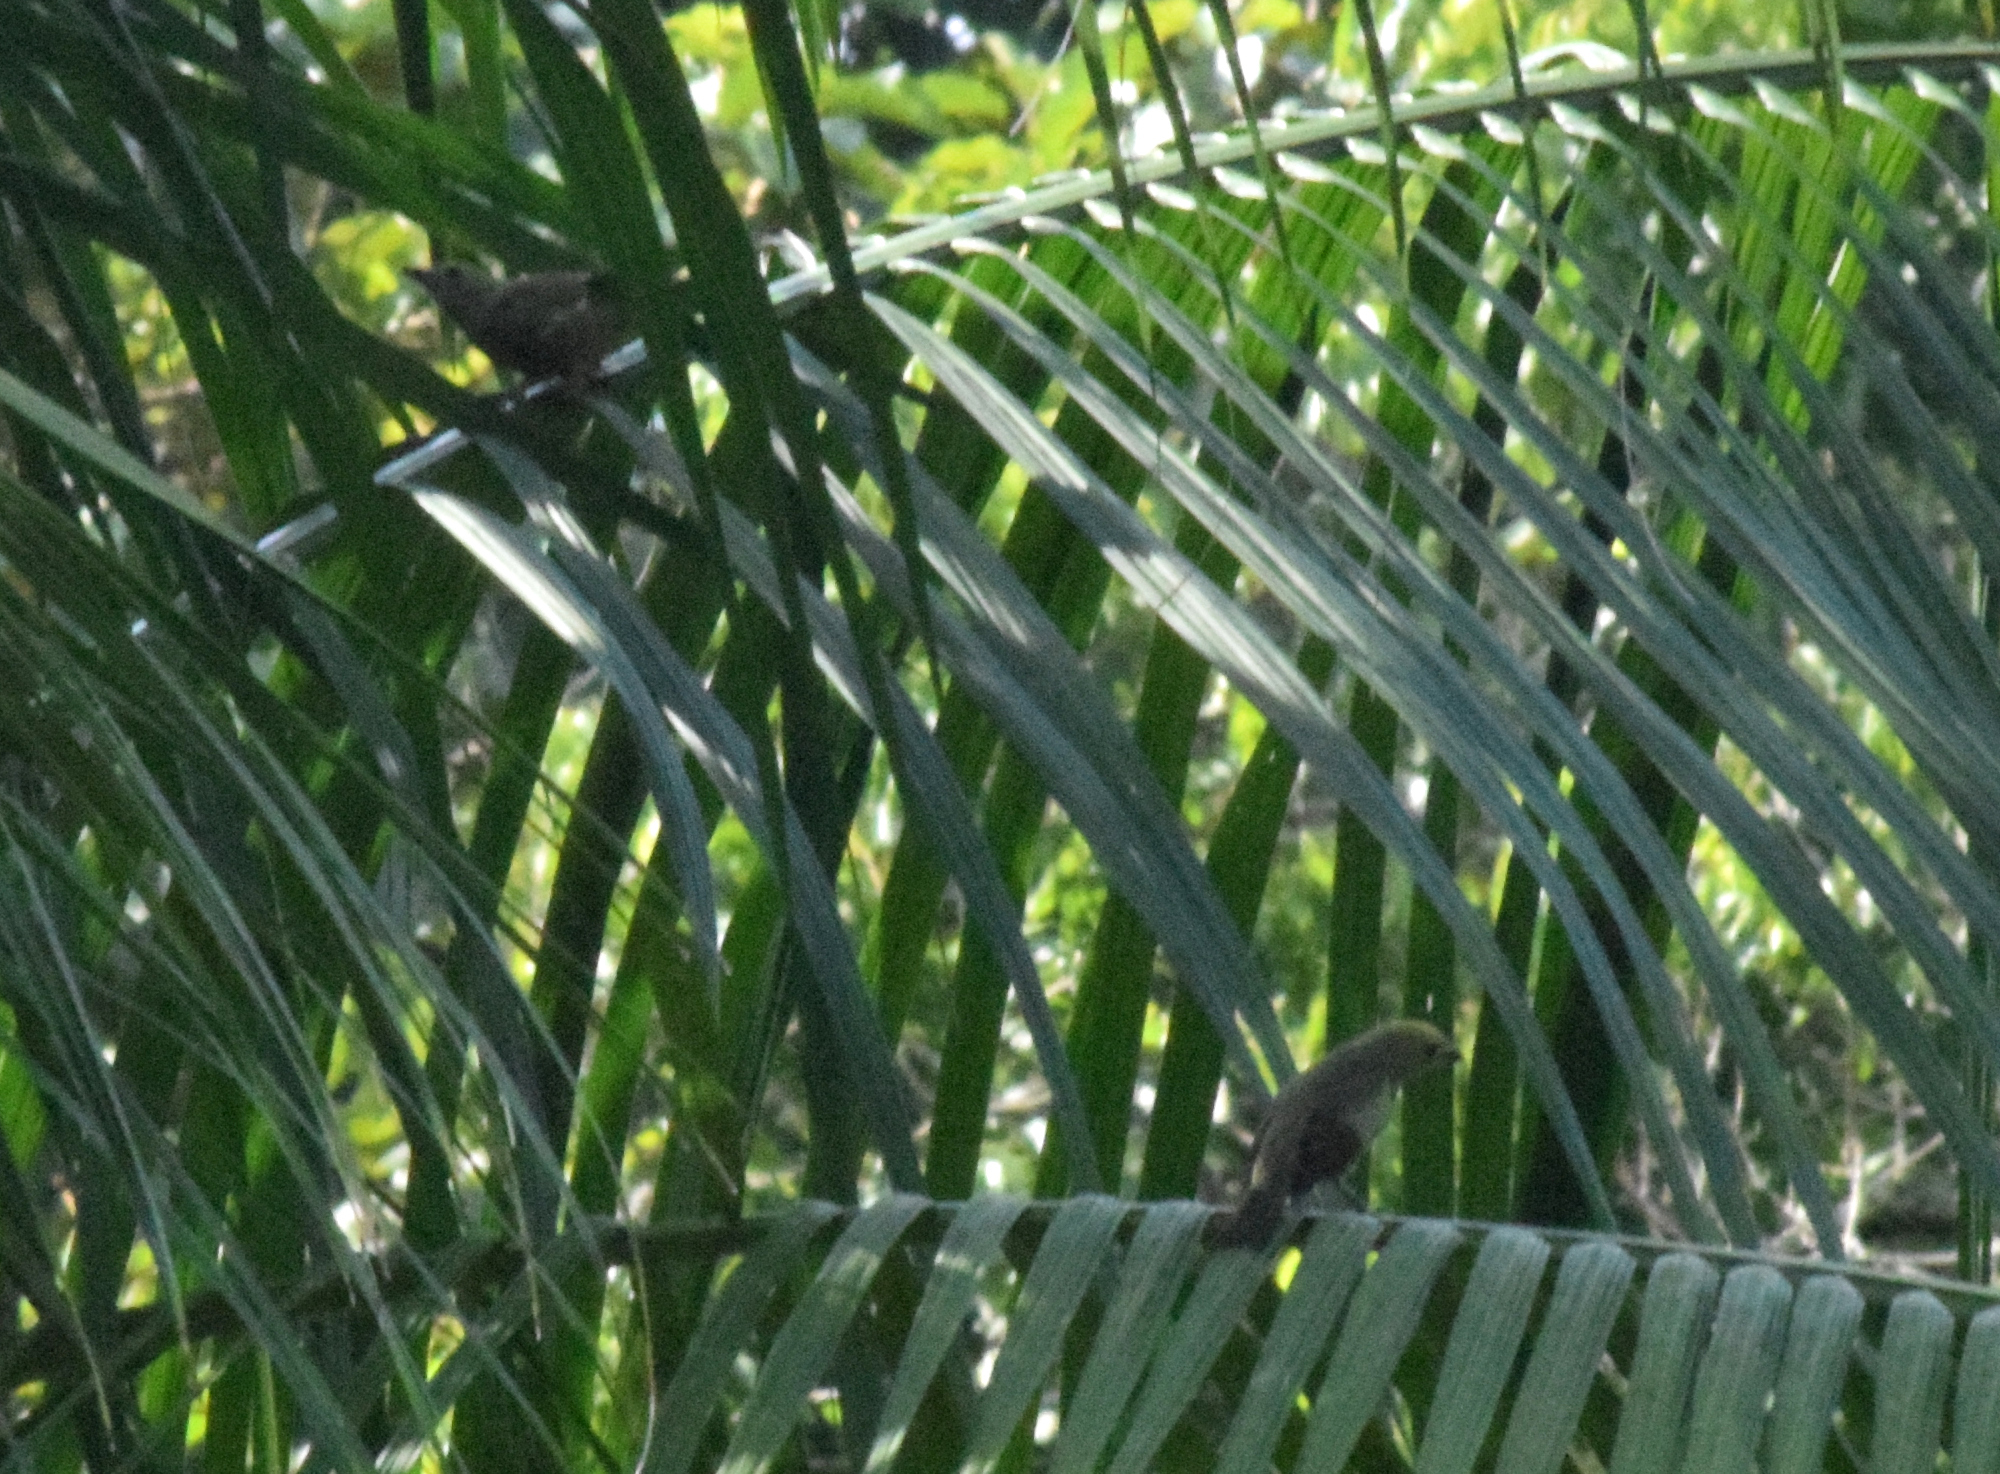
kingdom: Animalia
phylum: Chordata
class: Aves
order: Passeriformes
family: Thraupidae
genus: Thraupis
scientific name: Thraupis palmarum
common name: Palm tanager
